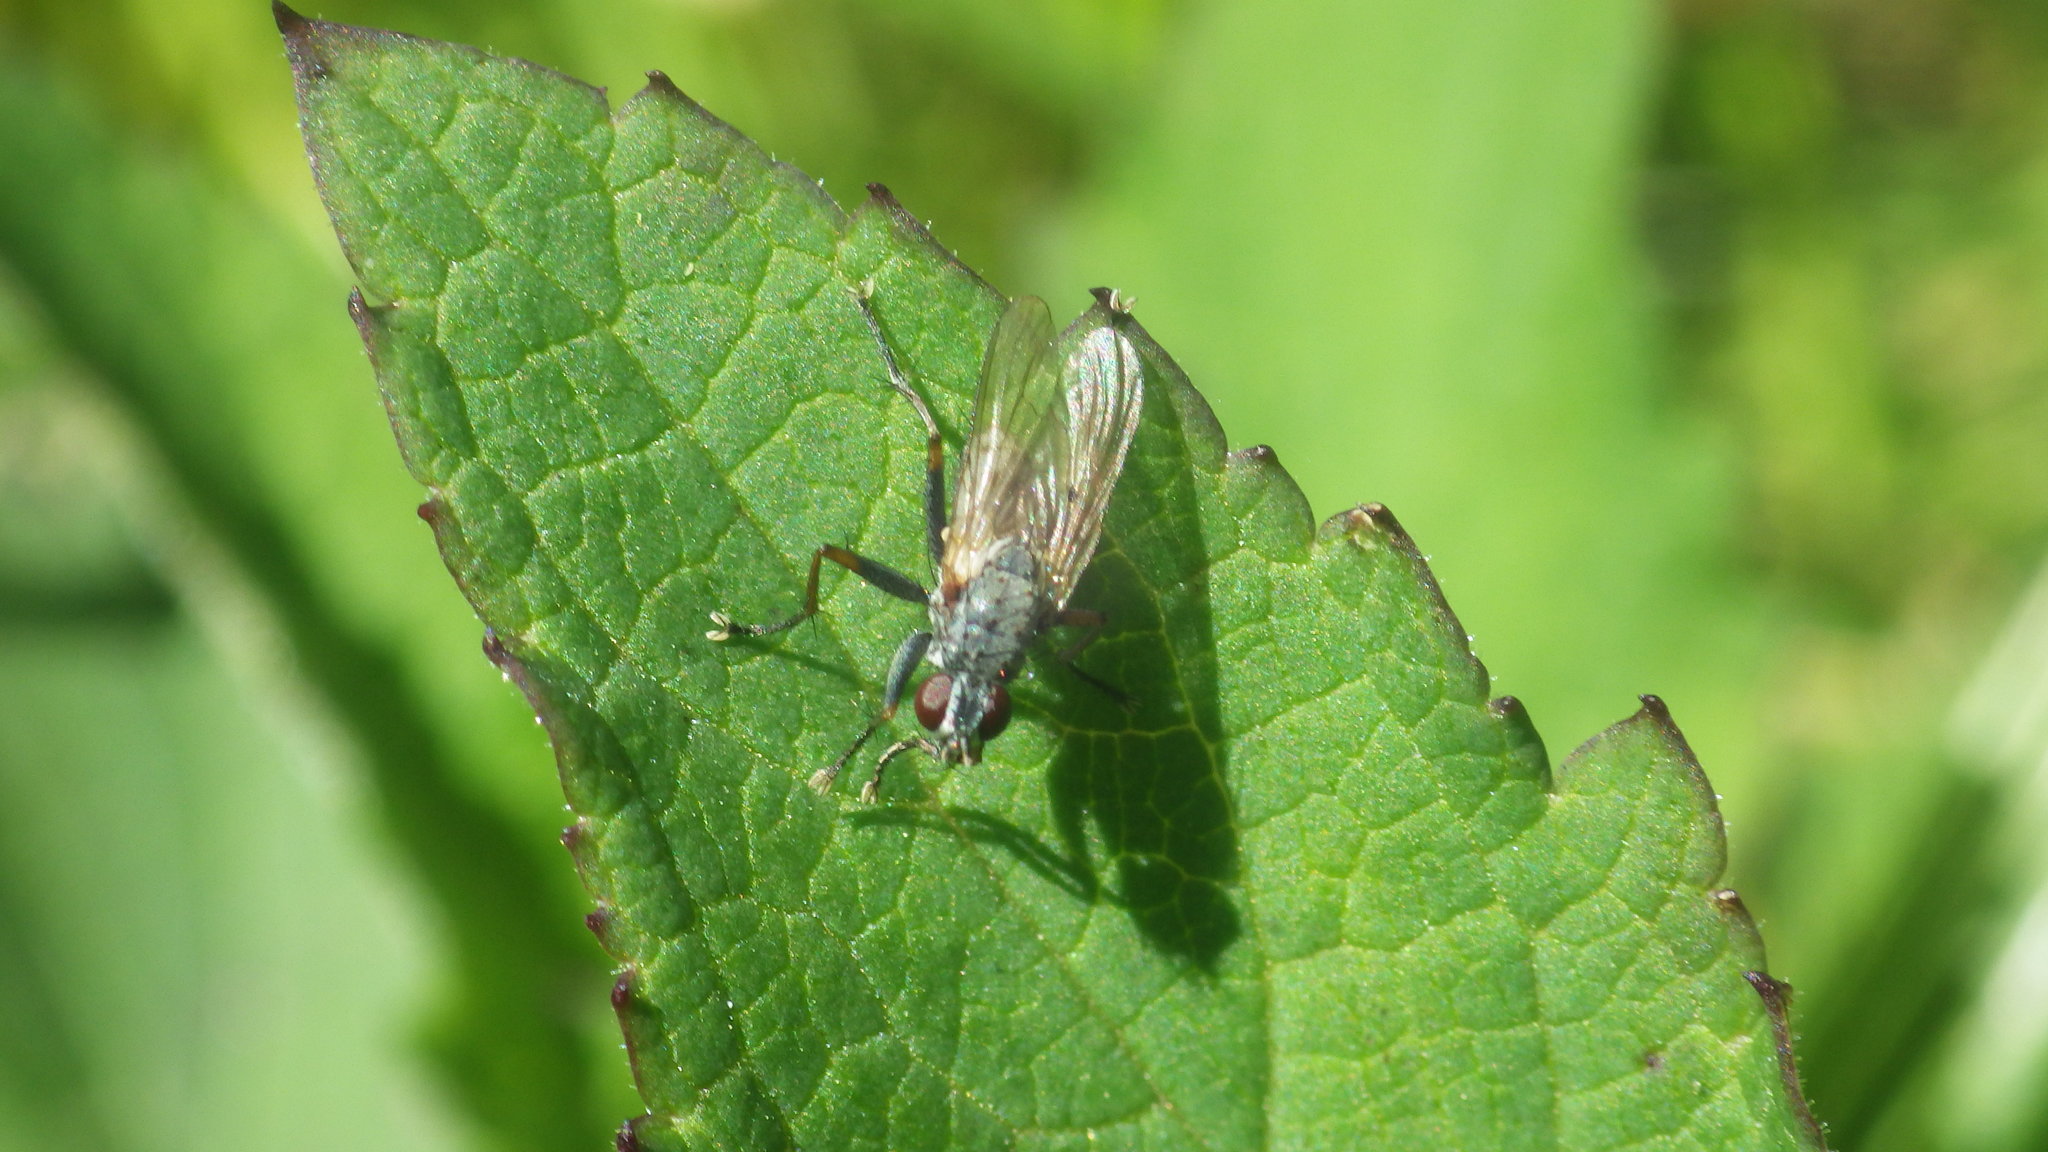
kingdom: Animalia
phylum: Arthropoda
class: Insecta
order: Diptera
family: Muscidae
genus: Coenosia
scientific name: Coenosia tigrina
